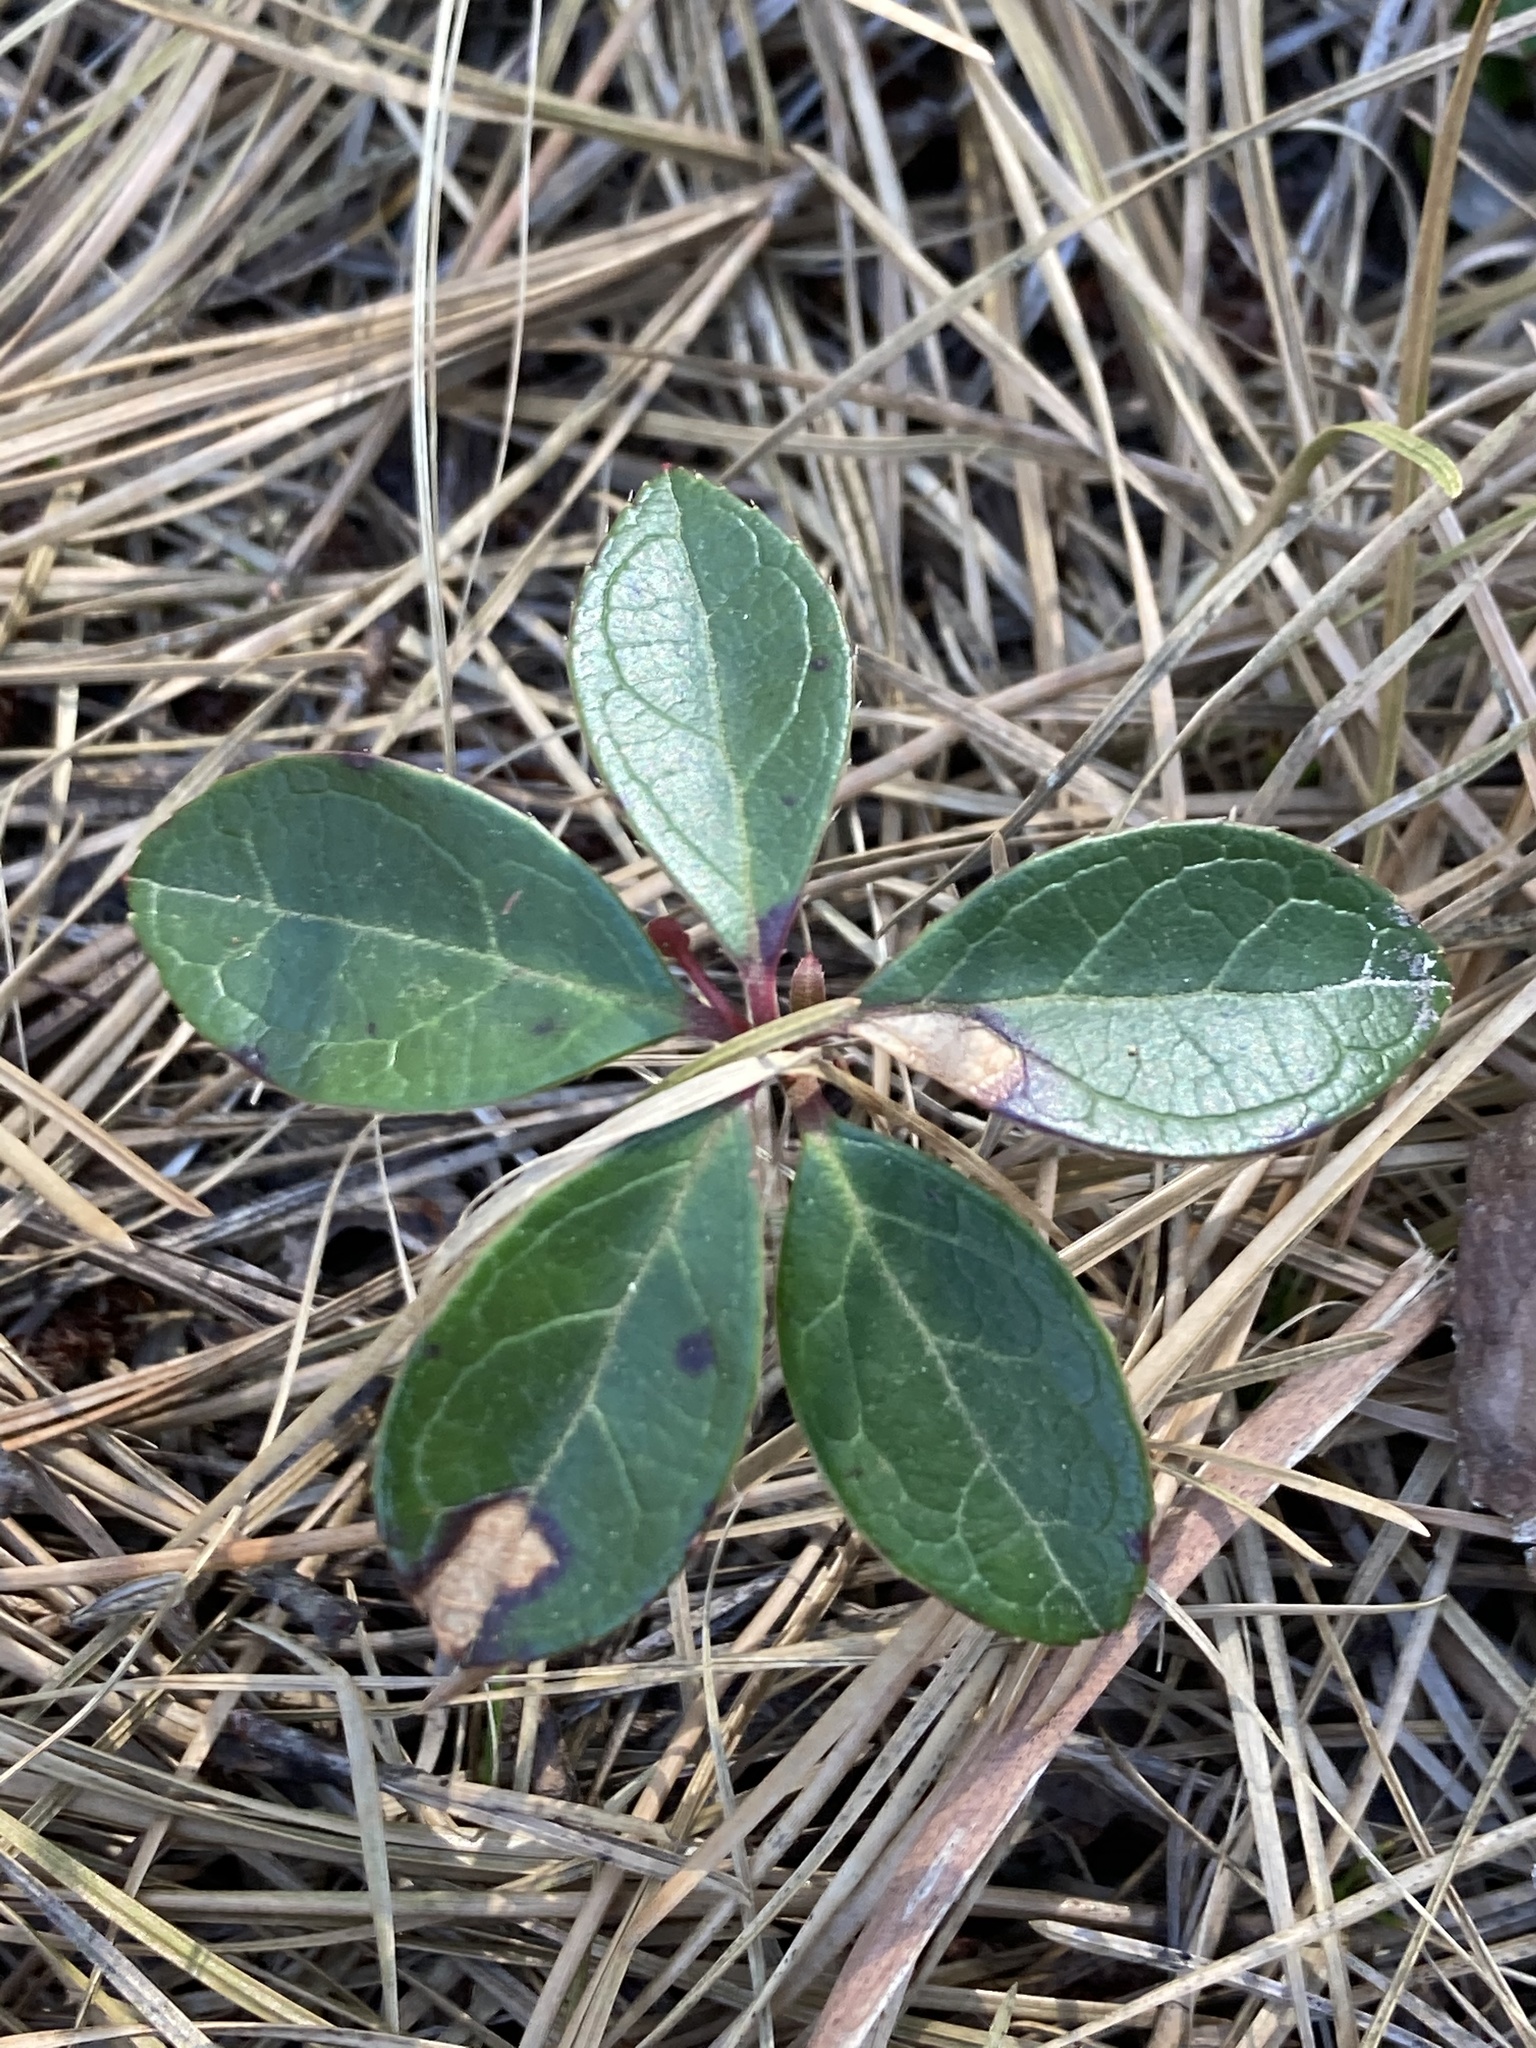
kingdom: Plantae
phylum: Tracheophyta
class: Magnoliopsida
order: Ericales
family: Ericaceae
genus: Gaultheria
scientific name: Gaultheria procumbens
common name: Checkerberry
